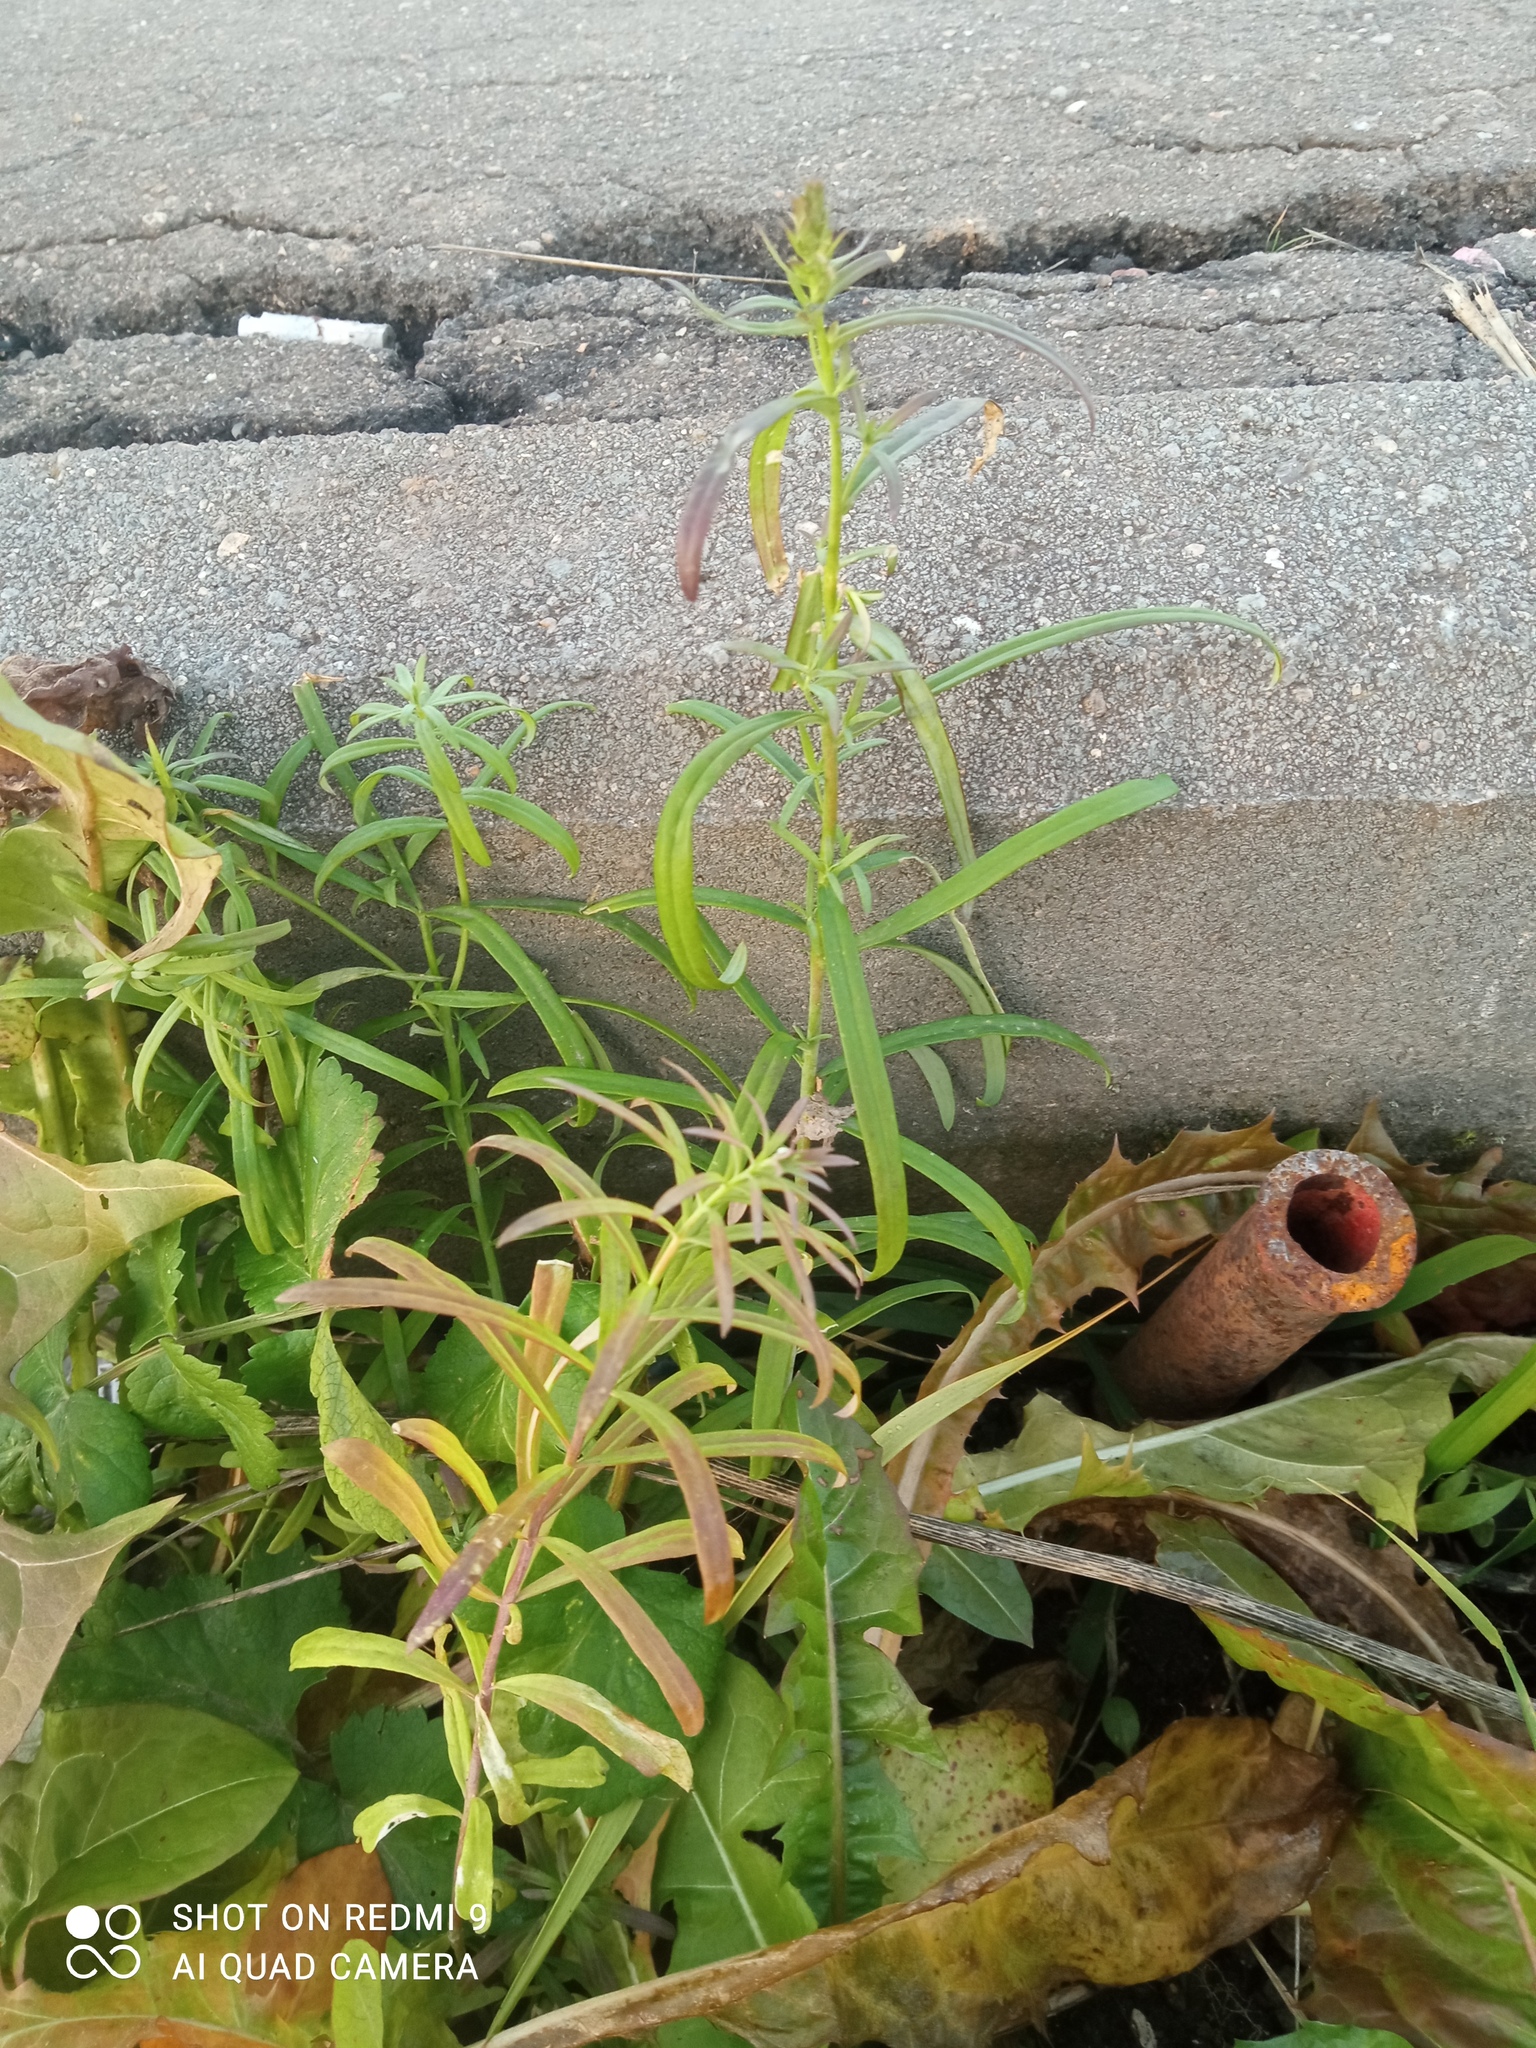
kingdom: Plantae
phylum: Tracheophyta
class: Magnoliopsida
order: Lamiales
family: Plantaginaceae
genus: Linaria
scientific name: Linaria vulgaris
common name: Butter and eggs
